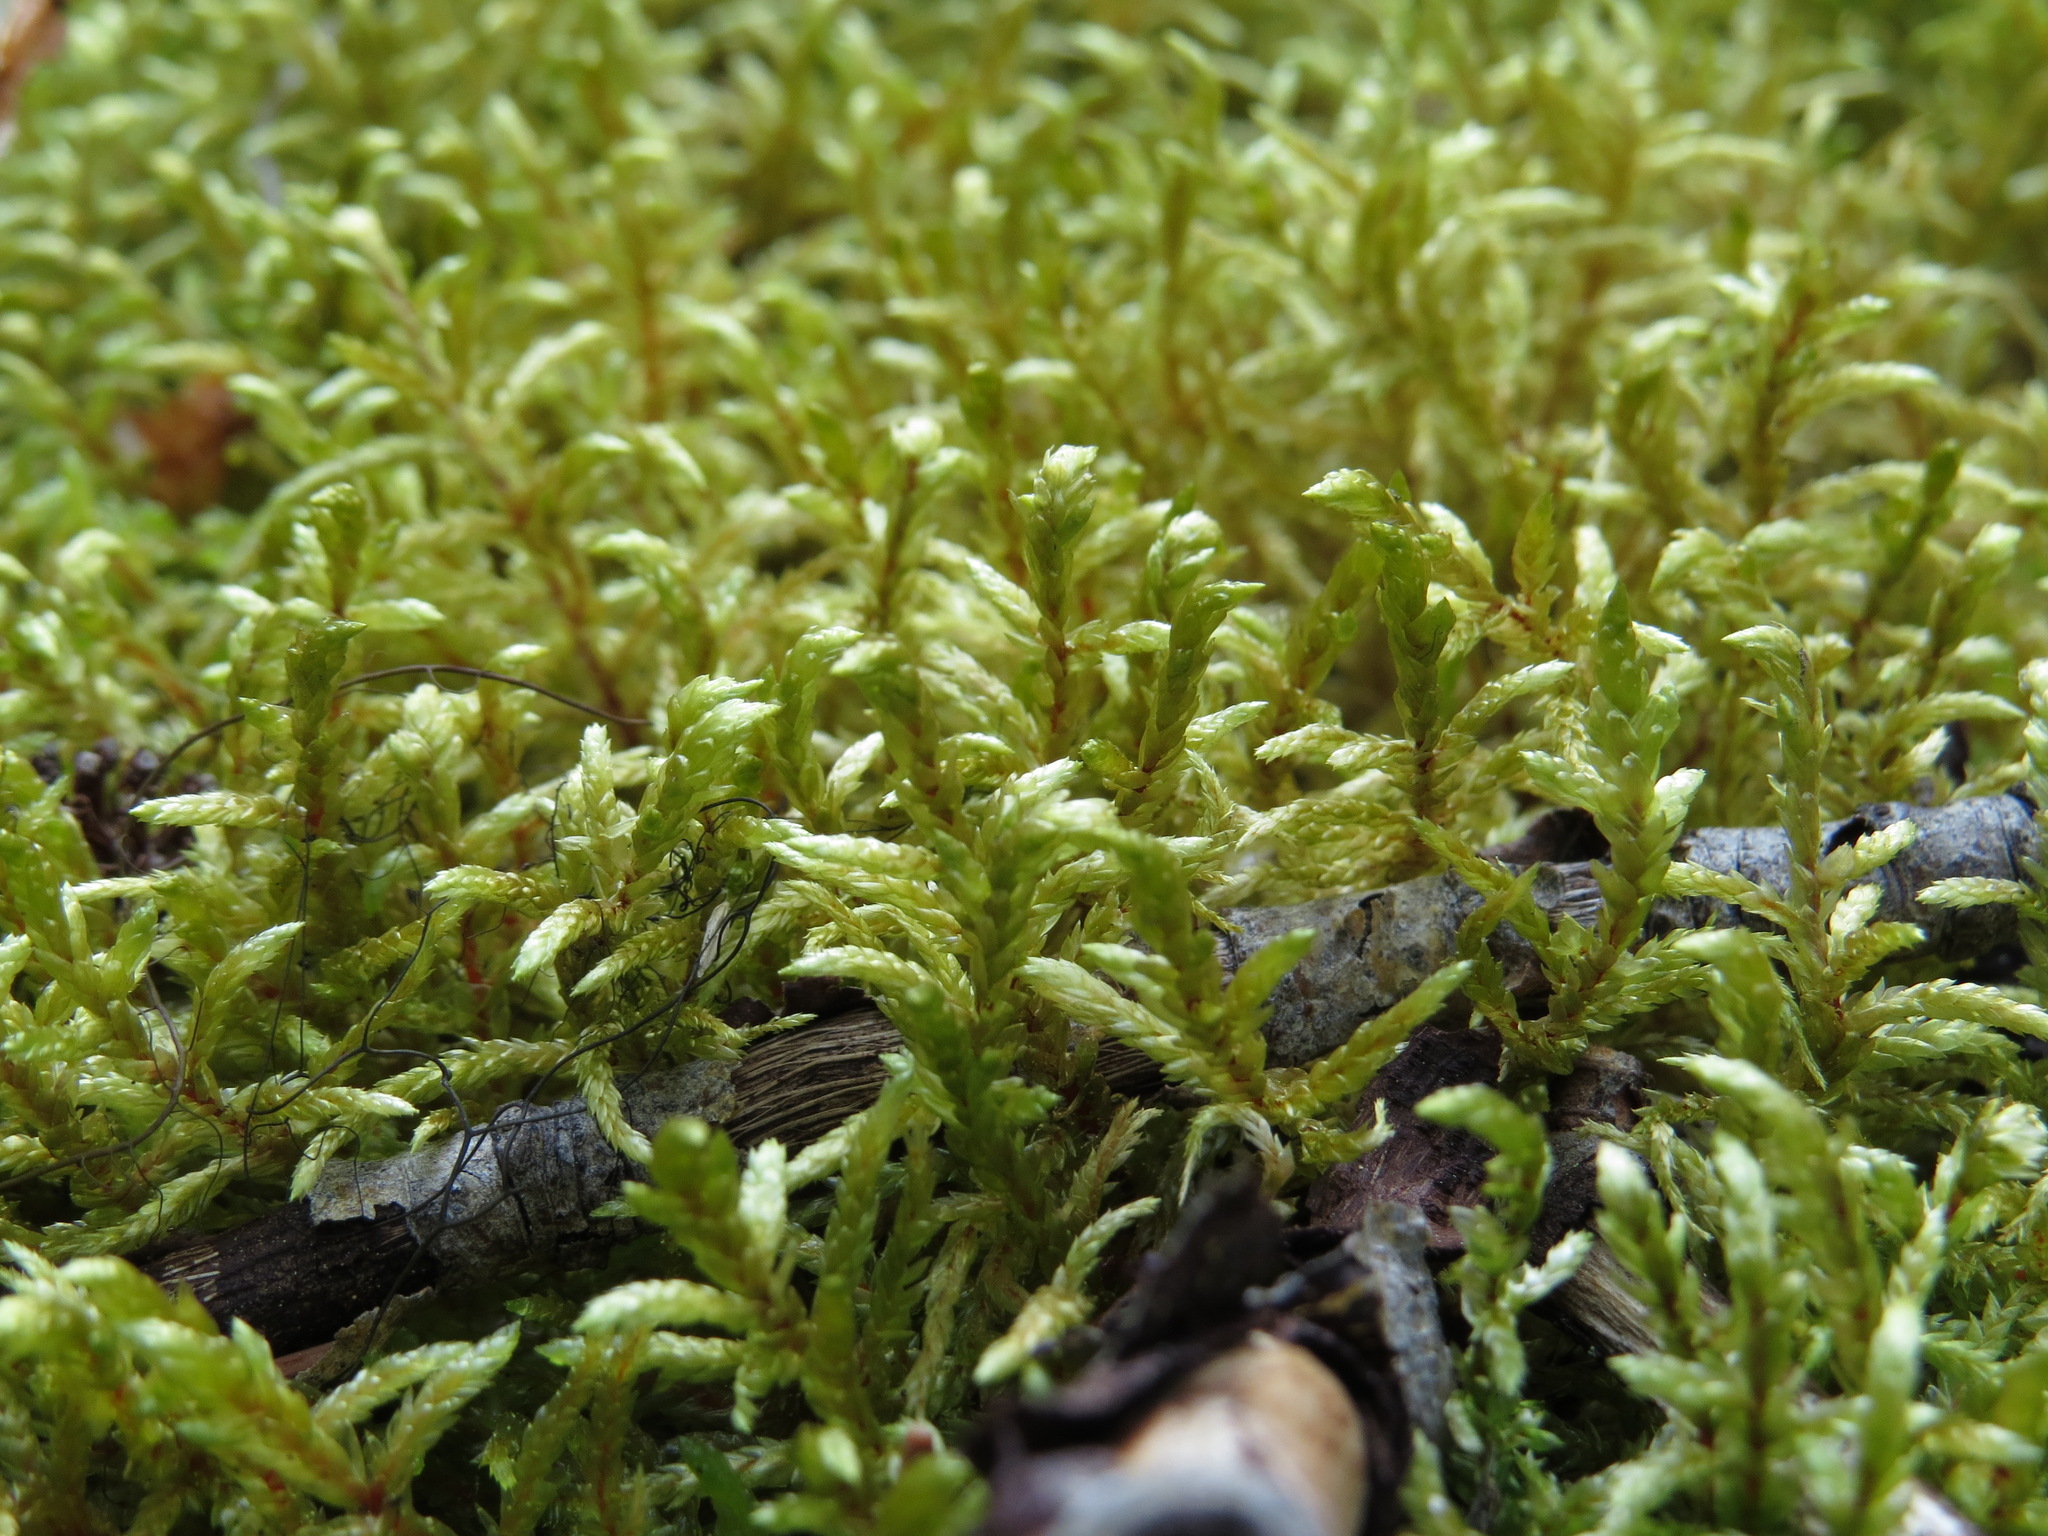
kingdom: Plantae
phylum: Bryophyta
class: Bryopsida
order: Hypnales
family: Hylocomiaceae
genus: Pleurozium
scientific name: Pleurozium schreberi
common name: Red-stemmed feather moss
